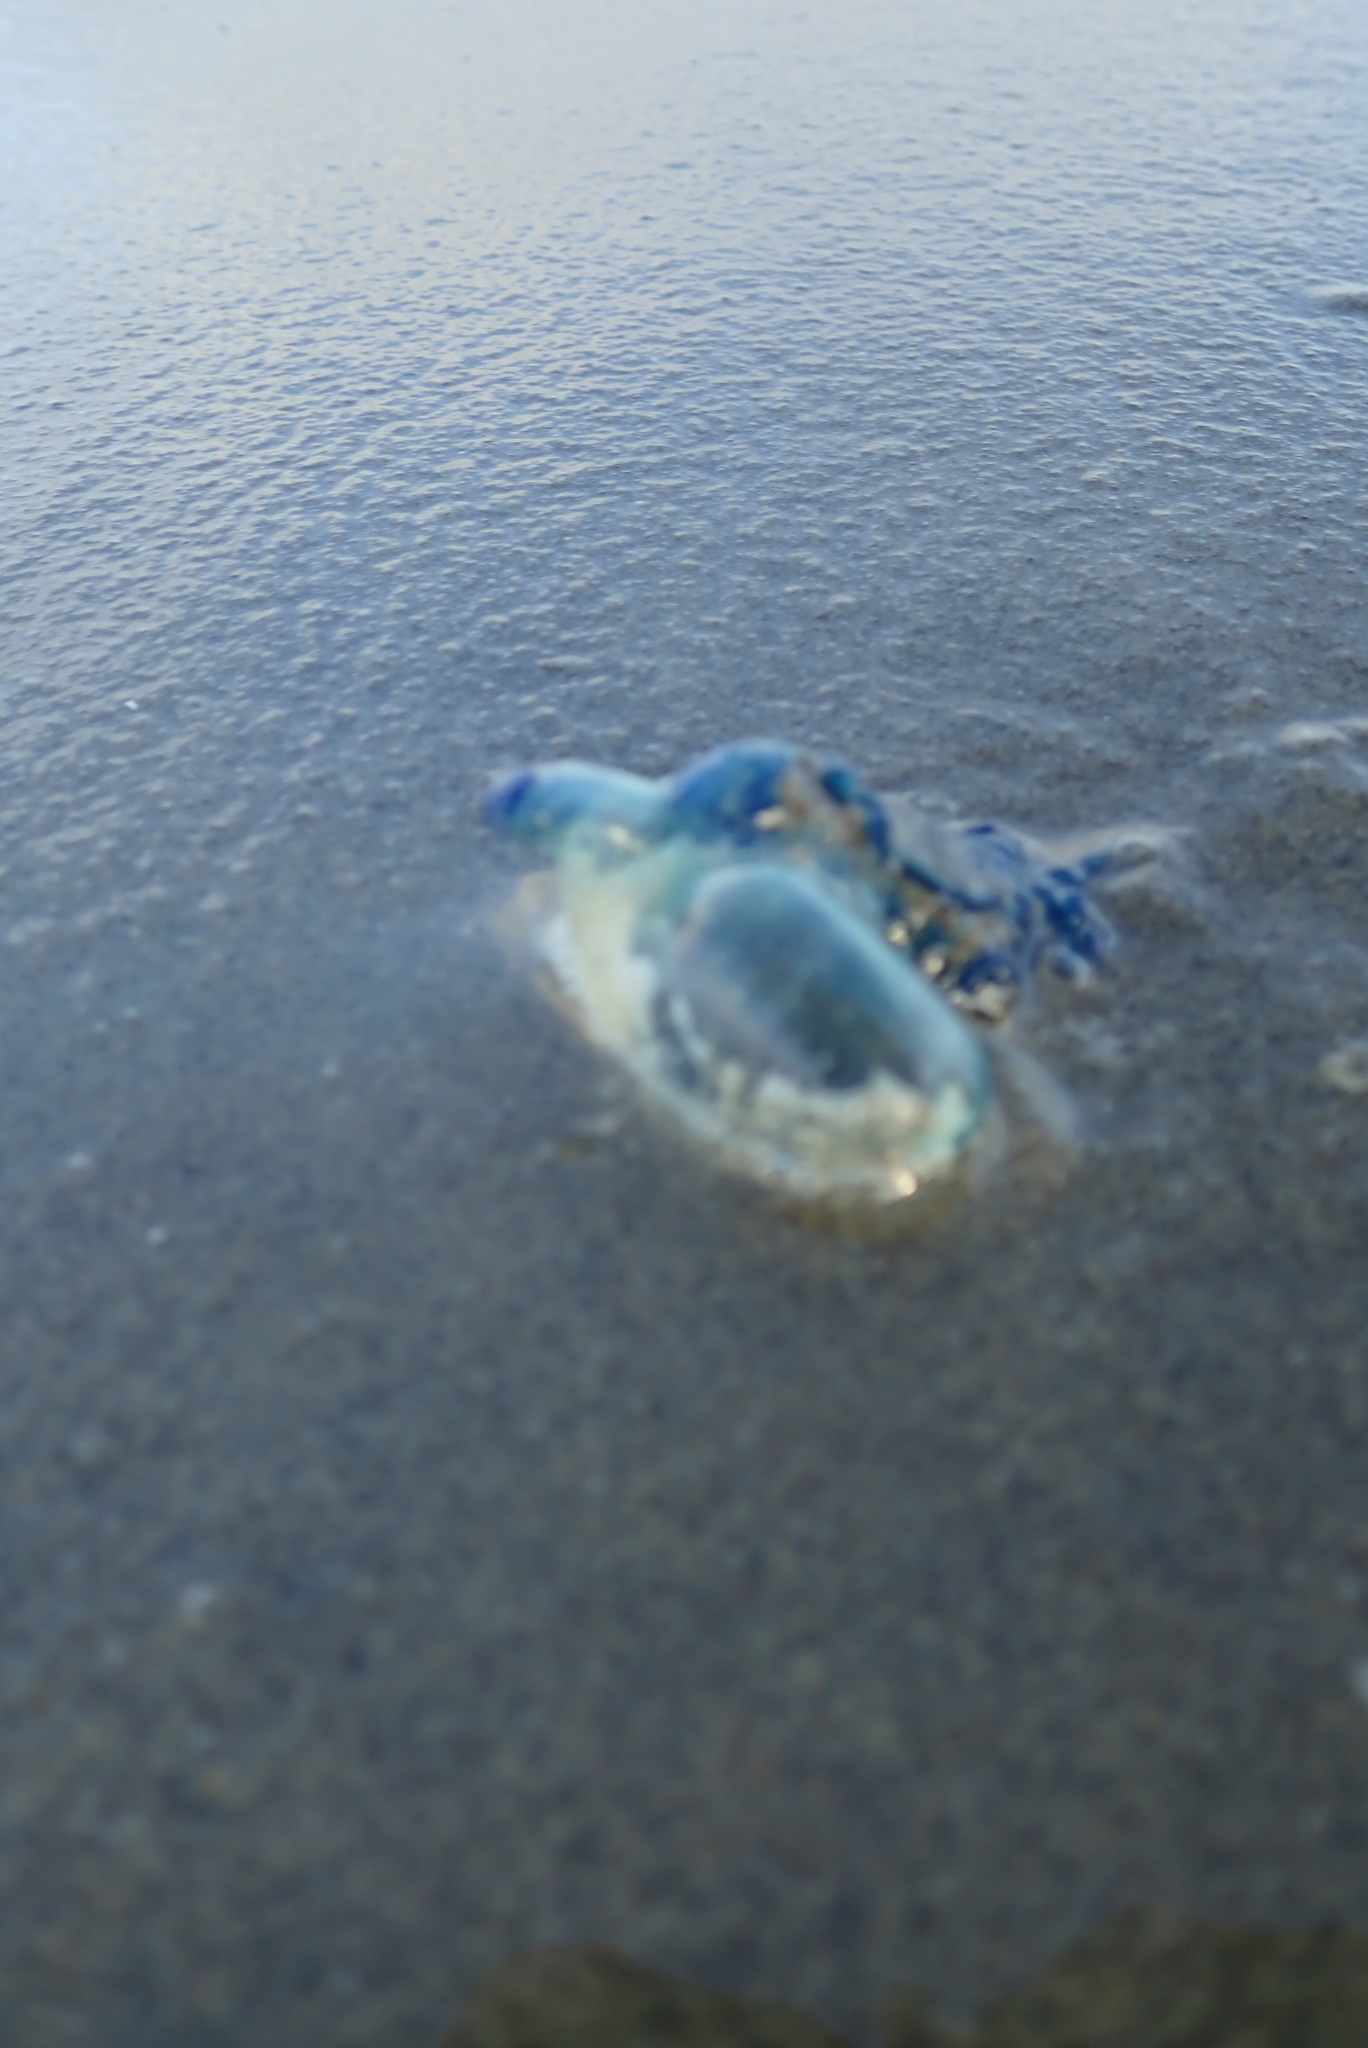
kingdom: Animalia
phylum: Cnidaria
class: Hydrozoa
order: Siphonophorae
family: Physaliidae
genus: Physalia
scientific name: Physalia physalis
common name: Portuguese man-of-war
